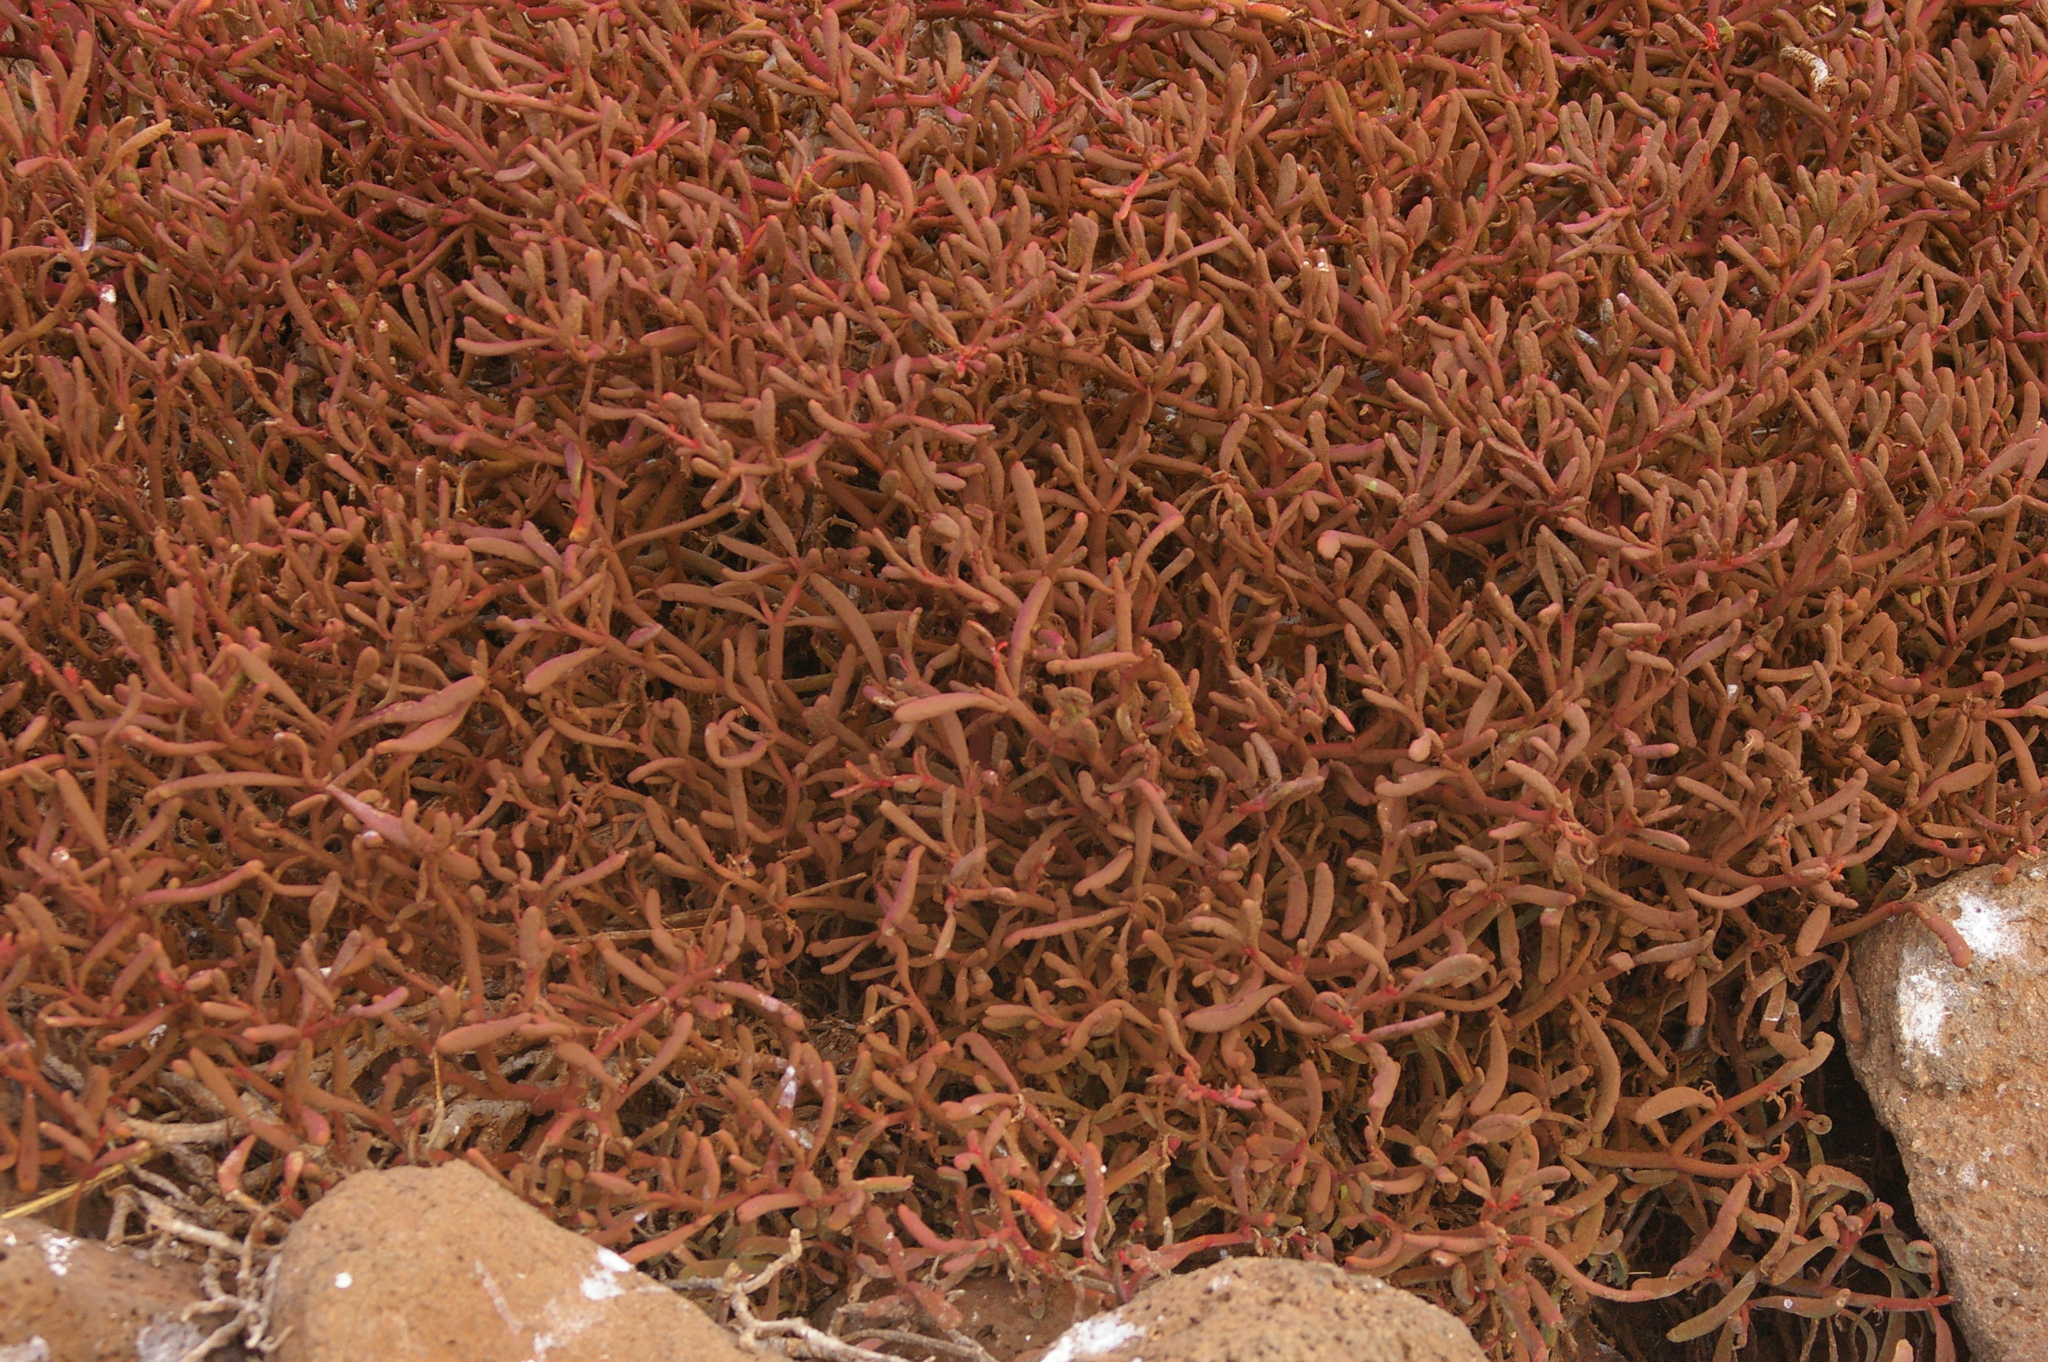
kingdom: Plantae
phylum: Tracheophyta
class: Magnoliopsida
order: Caryophyllales
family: Aizoaceae
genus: Sesuvium
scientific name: Sesuvium edmonstonei
